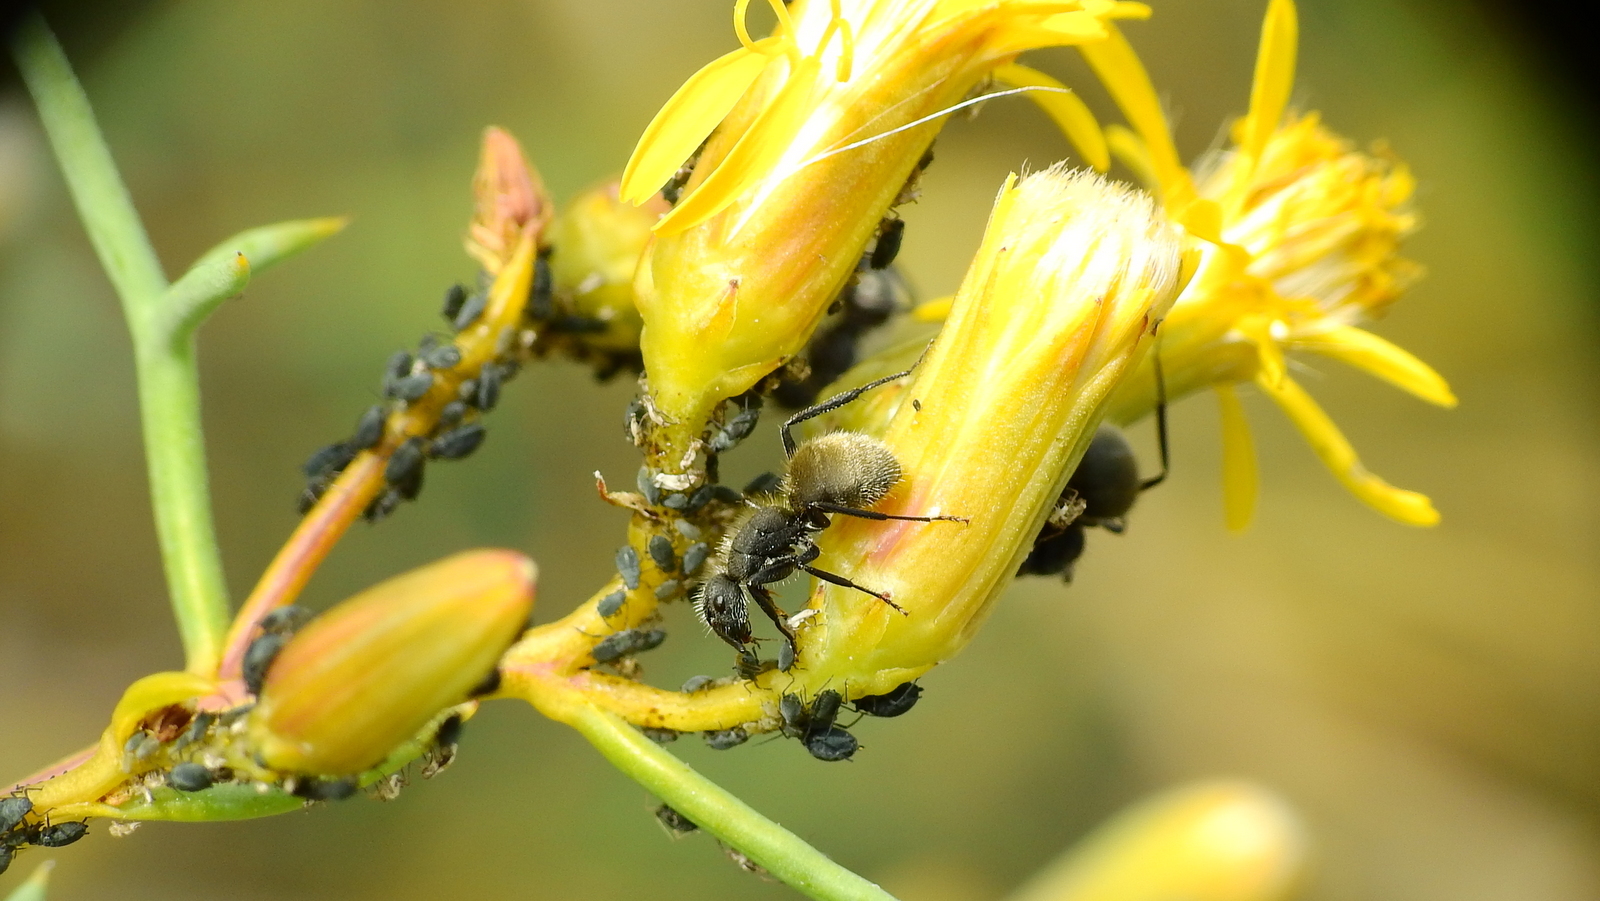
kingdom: Animalia
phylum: Arthropoda
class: Insecta
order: Hymenoptera
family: Formicidae
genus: Camponotus
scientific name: Camponotus mus
